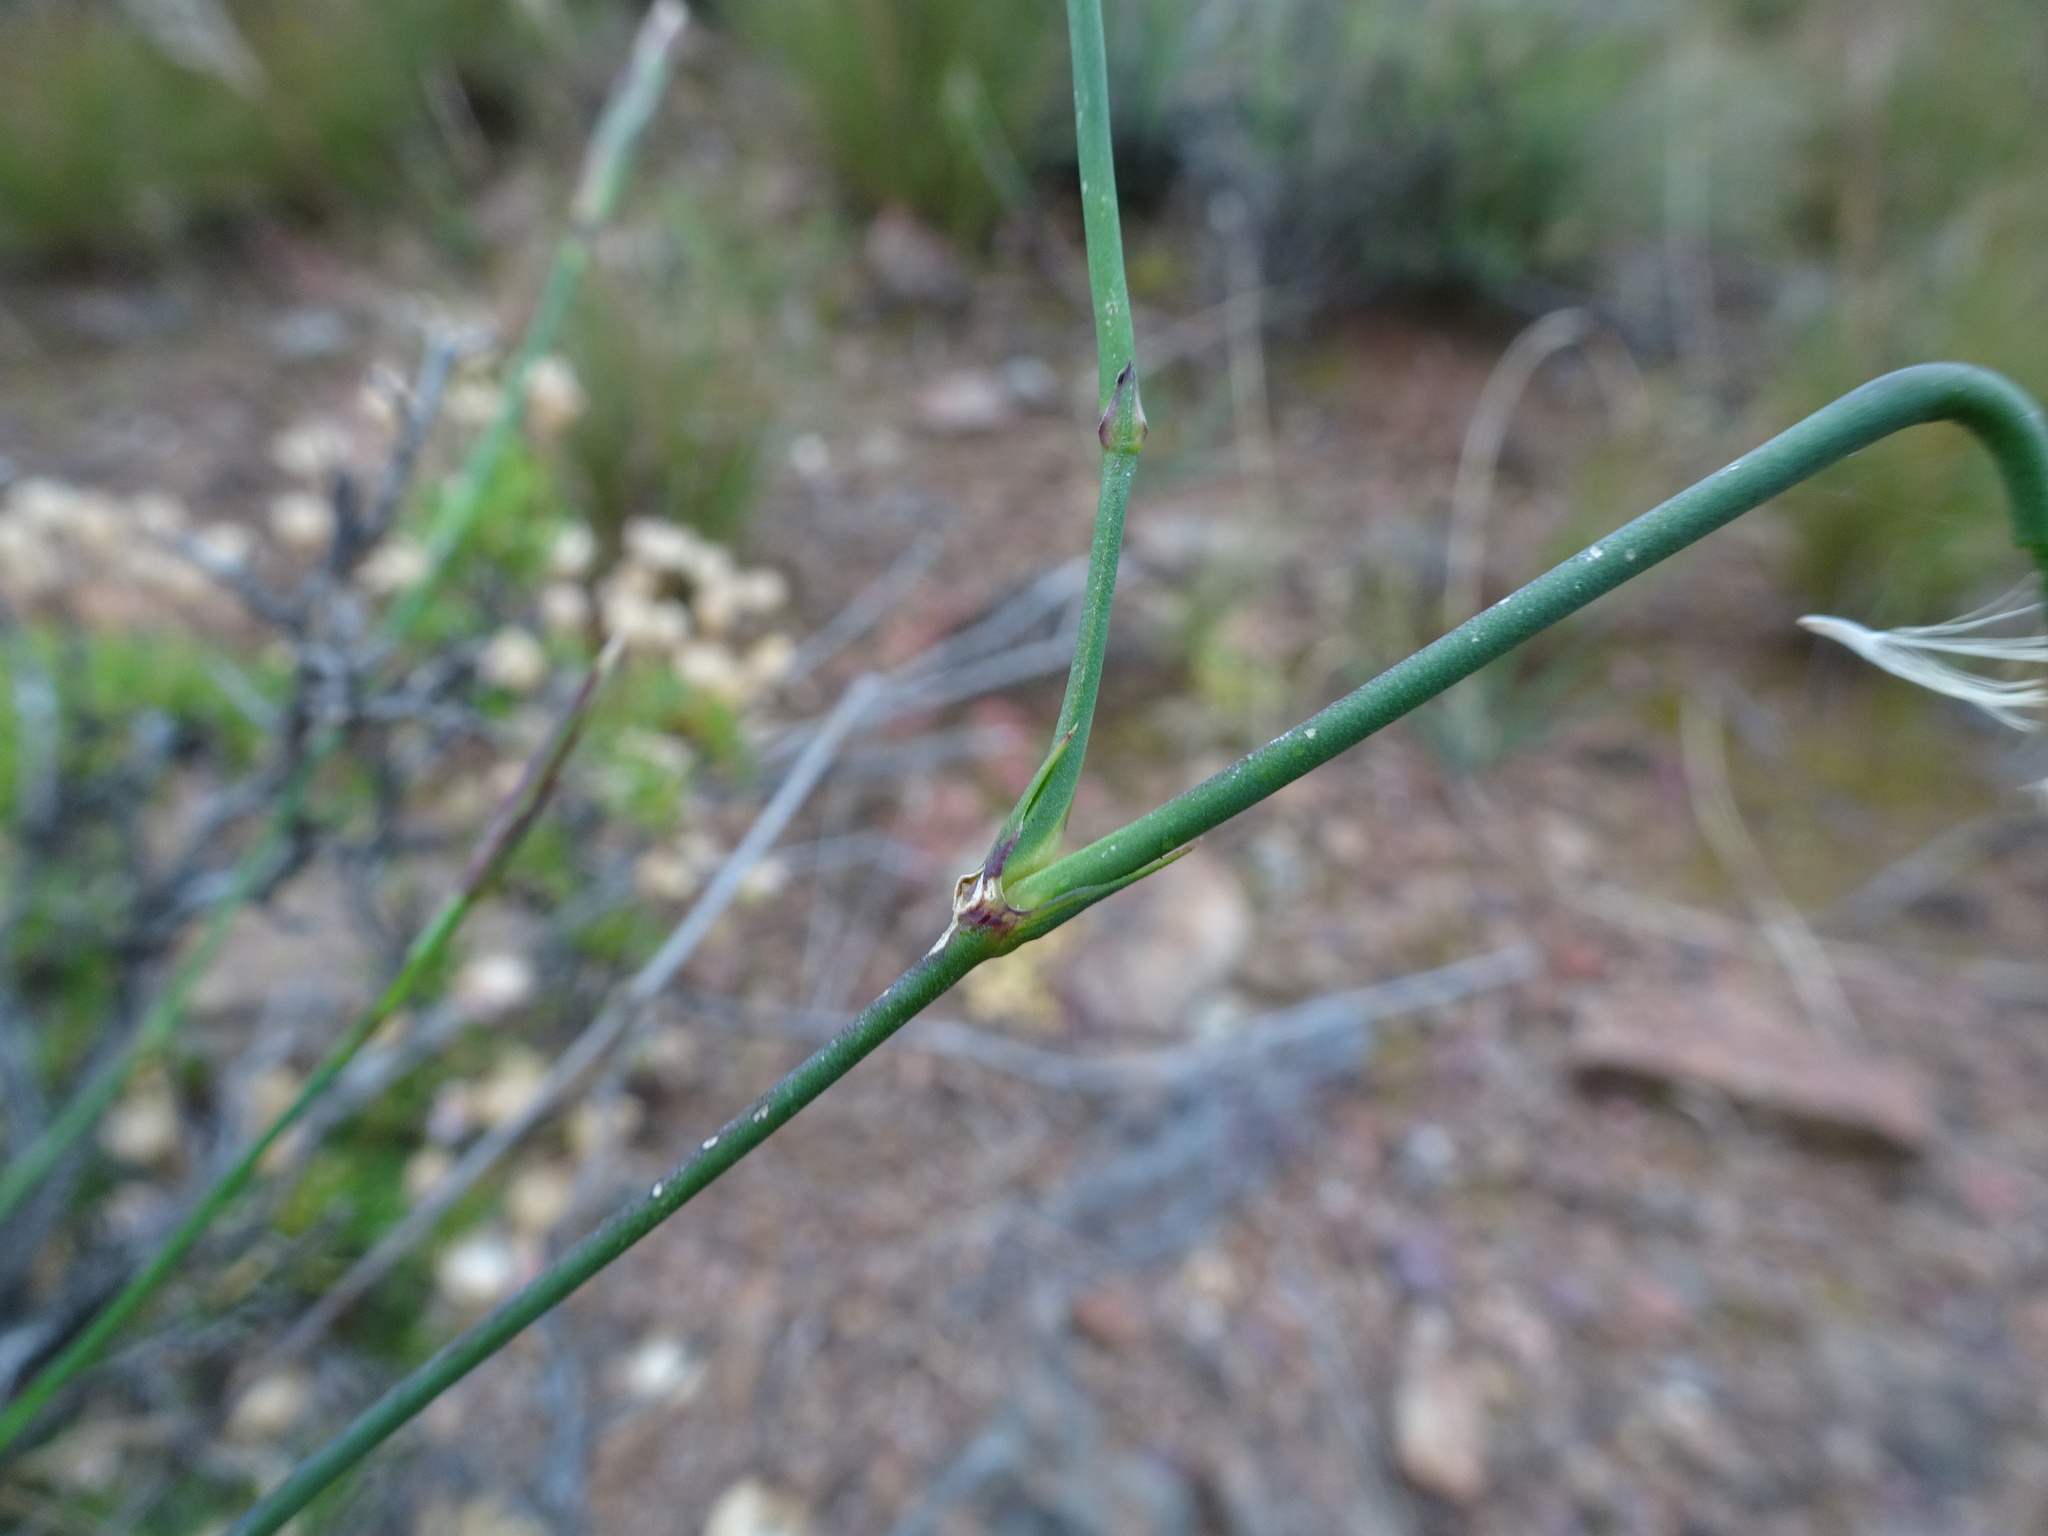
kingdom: Plantae
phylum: Tracheophyta
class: Magnoliopsida
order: Caryophyllales
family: Caryophyllaceae
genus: Dianthus
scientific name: Dianthus caespitosus
